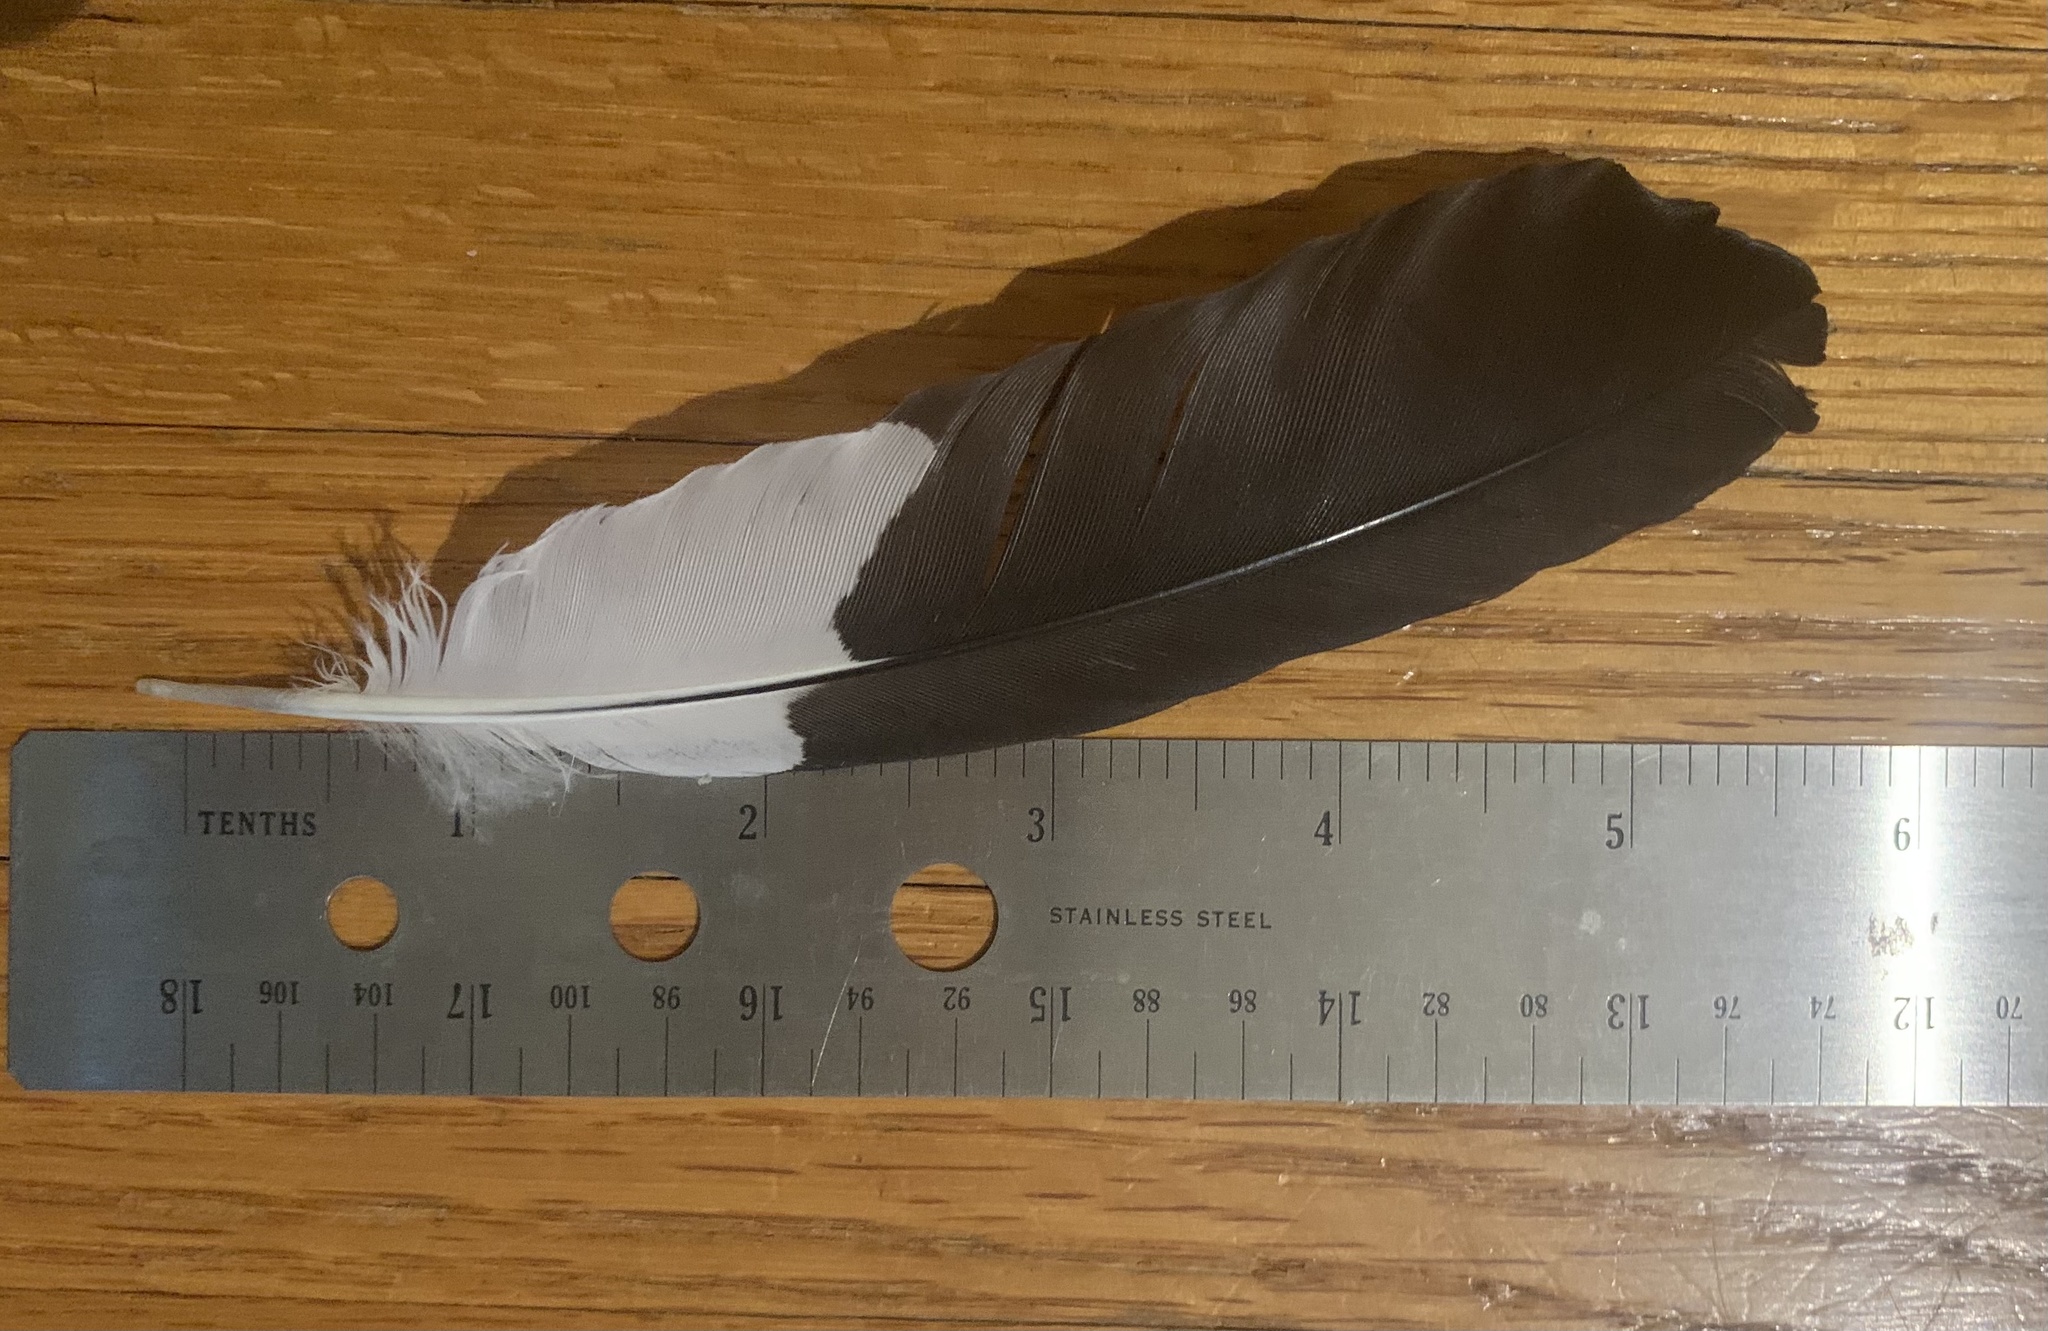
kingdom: Animalia
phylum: Chordata
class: Aves
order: Piciformes
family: Picidae
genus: Dryocopus
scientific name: Dryocopus pileatus
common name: Pileated woodpecker
